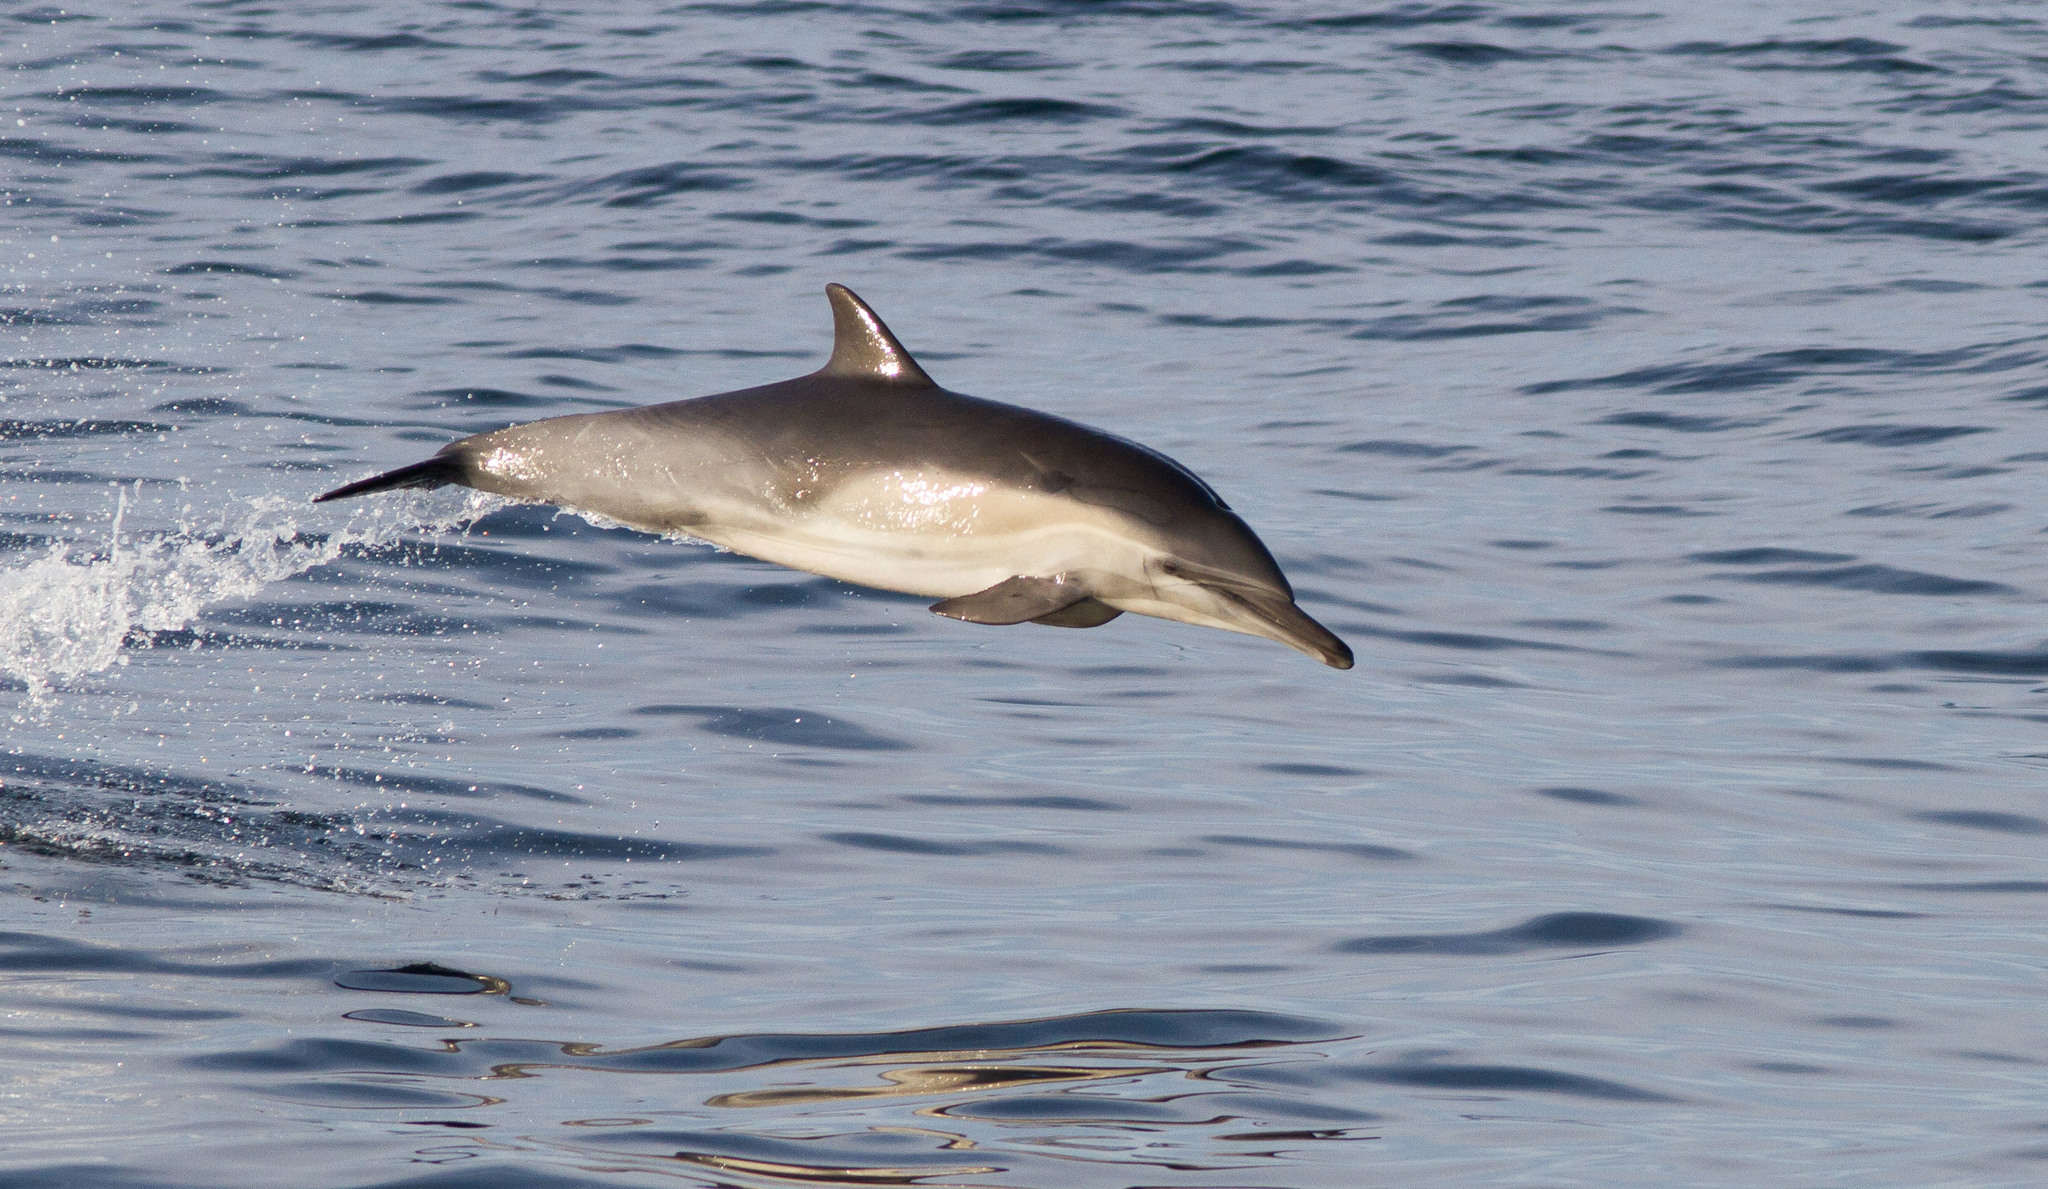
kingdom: Animalia
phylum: Chordata
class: Mammalia
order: Cetacea
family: Delphinidae
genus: Delphinus
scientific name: Delphinus delphis
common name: Common dolphin
